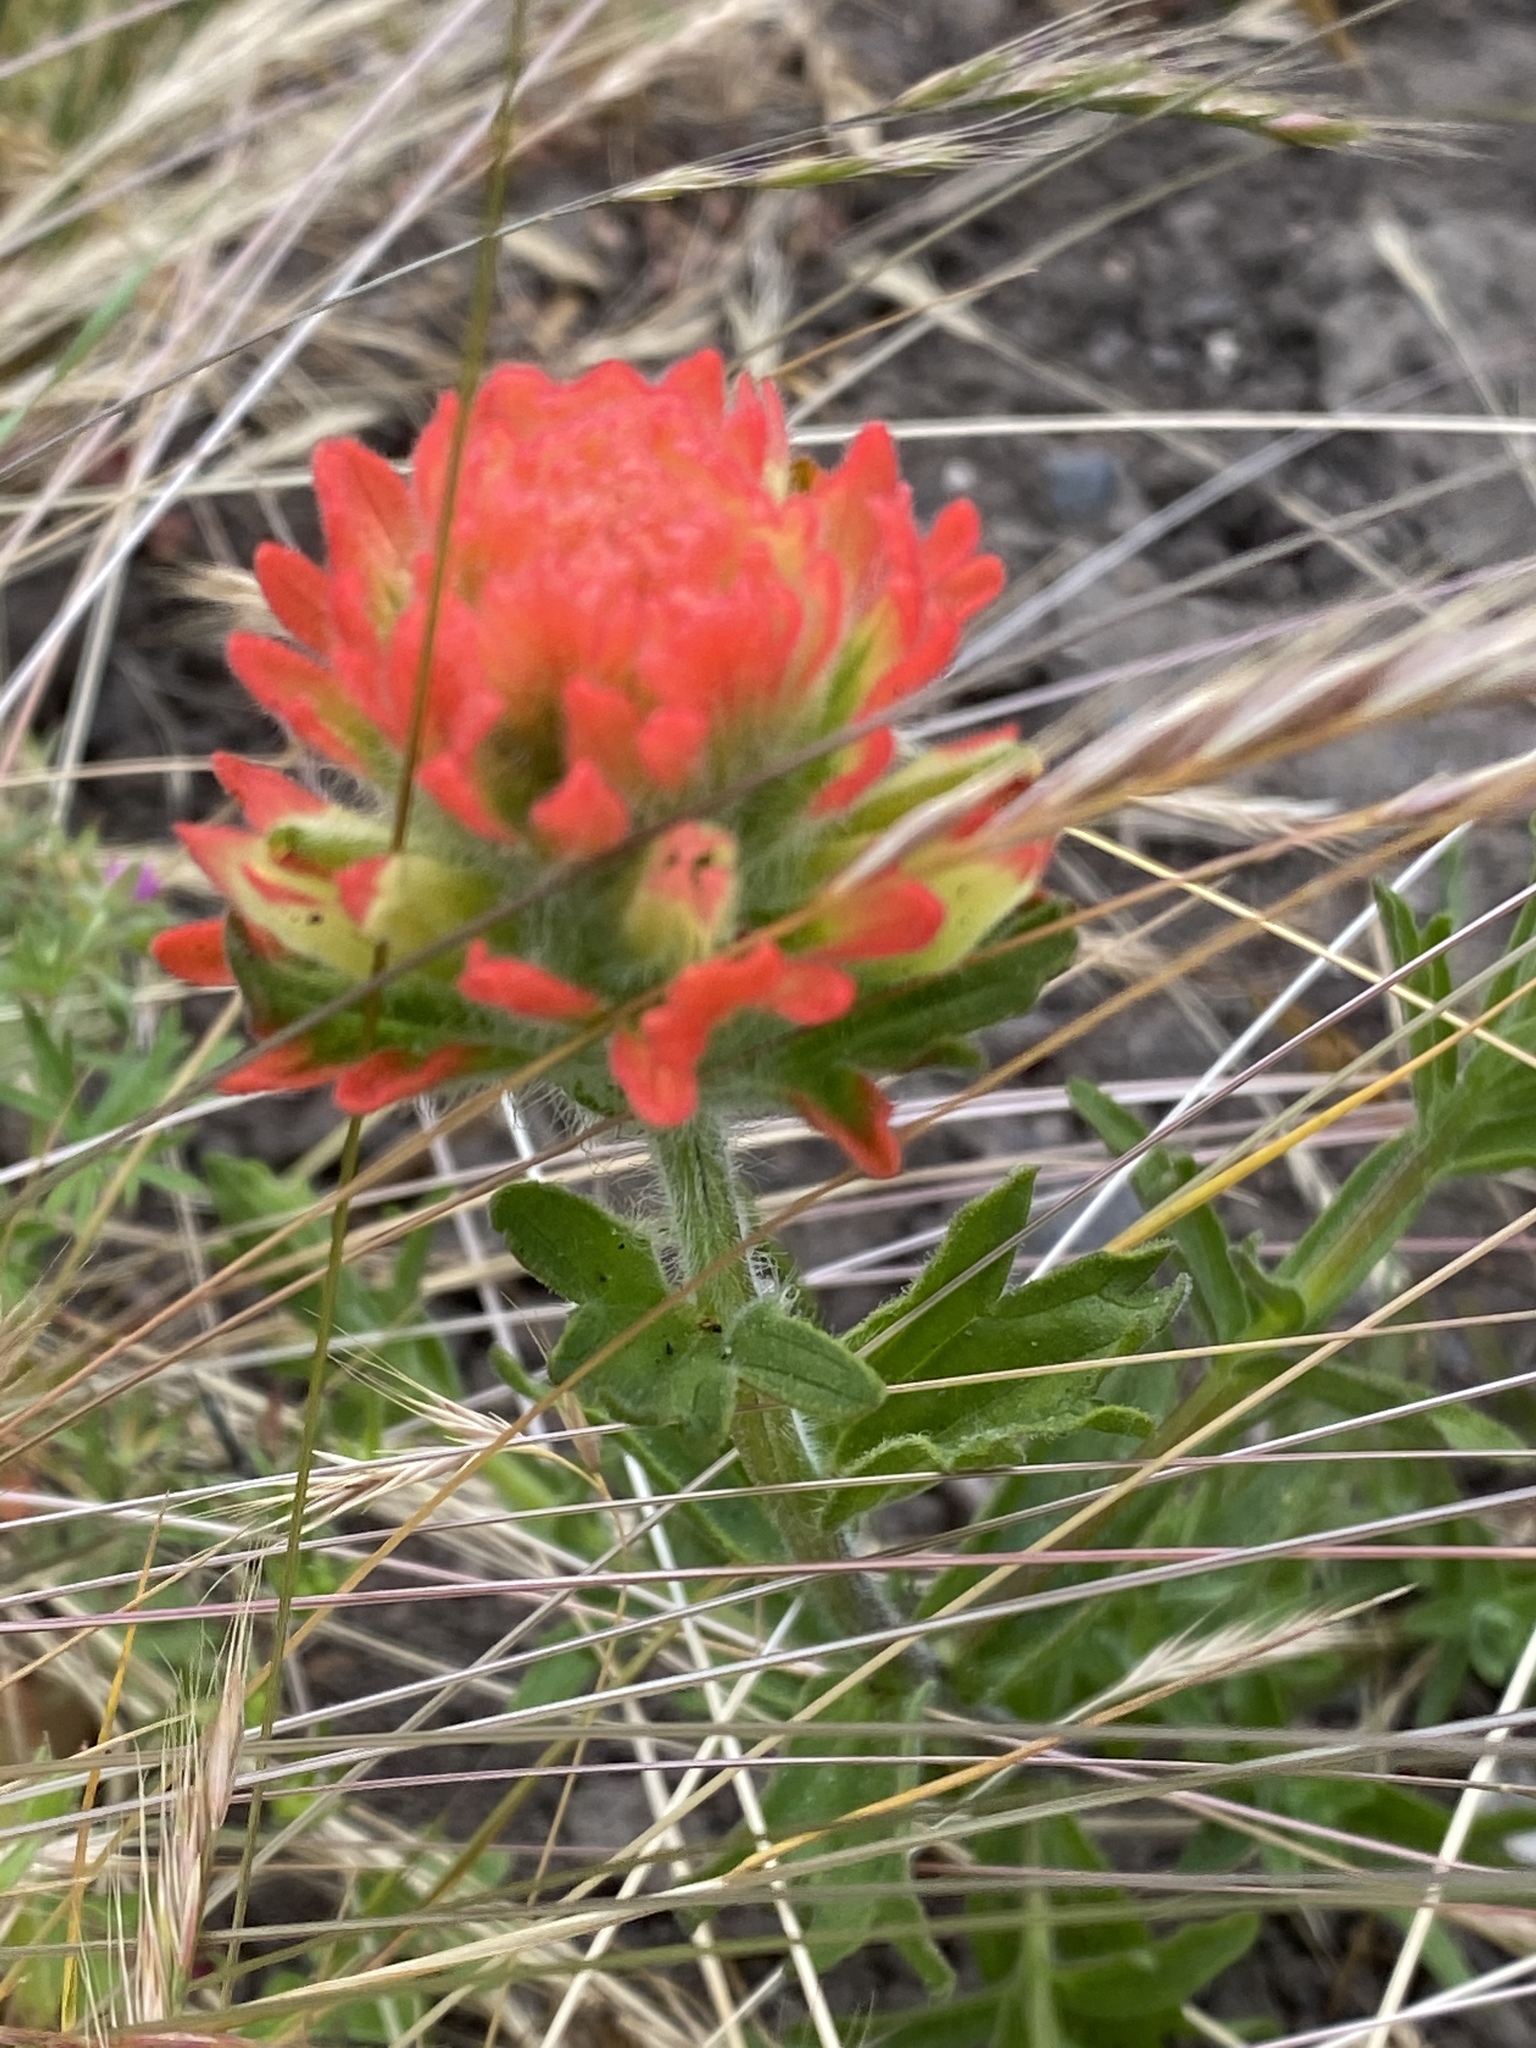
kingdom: Plantae
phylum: Tracheophyta
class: Magnoliopsida
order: Lamiales
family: Orobanchaceae
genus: Castilleja
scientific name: Castilleja affinis
